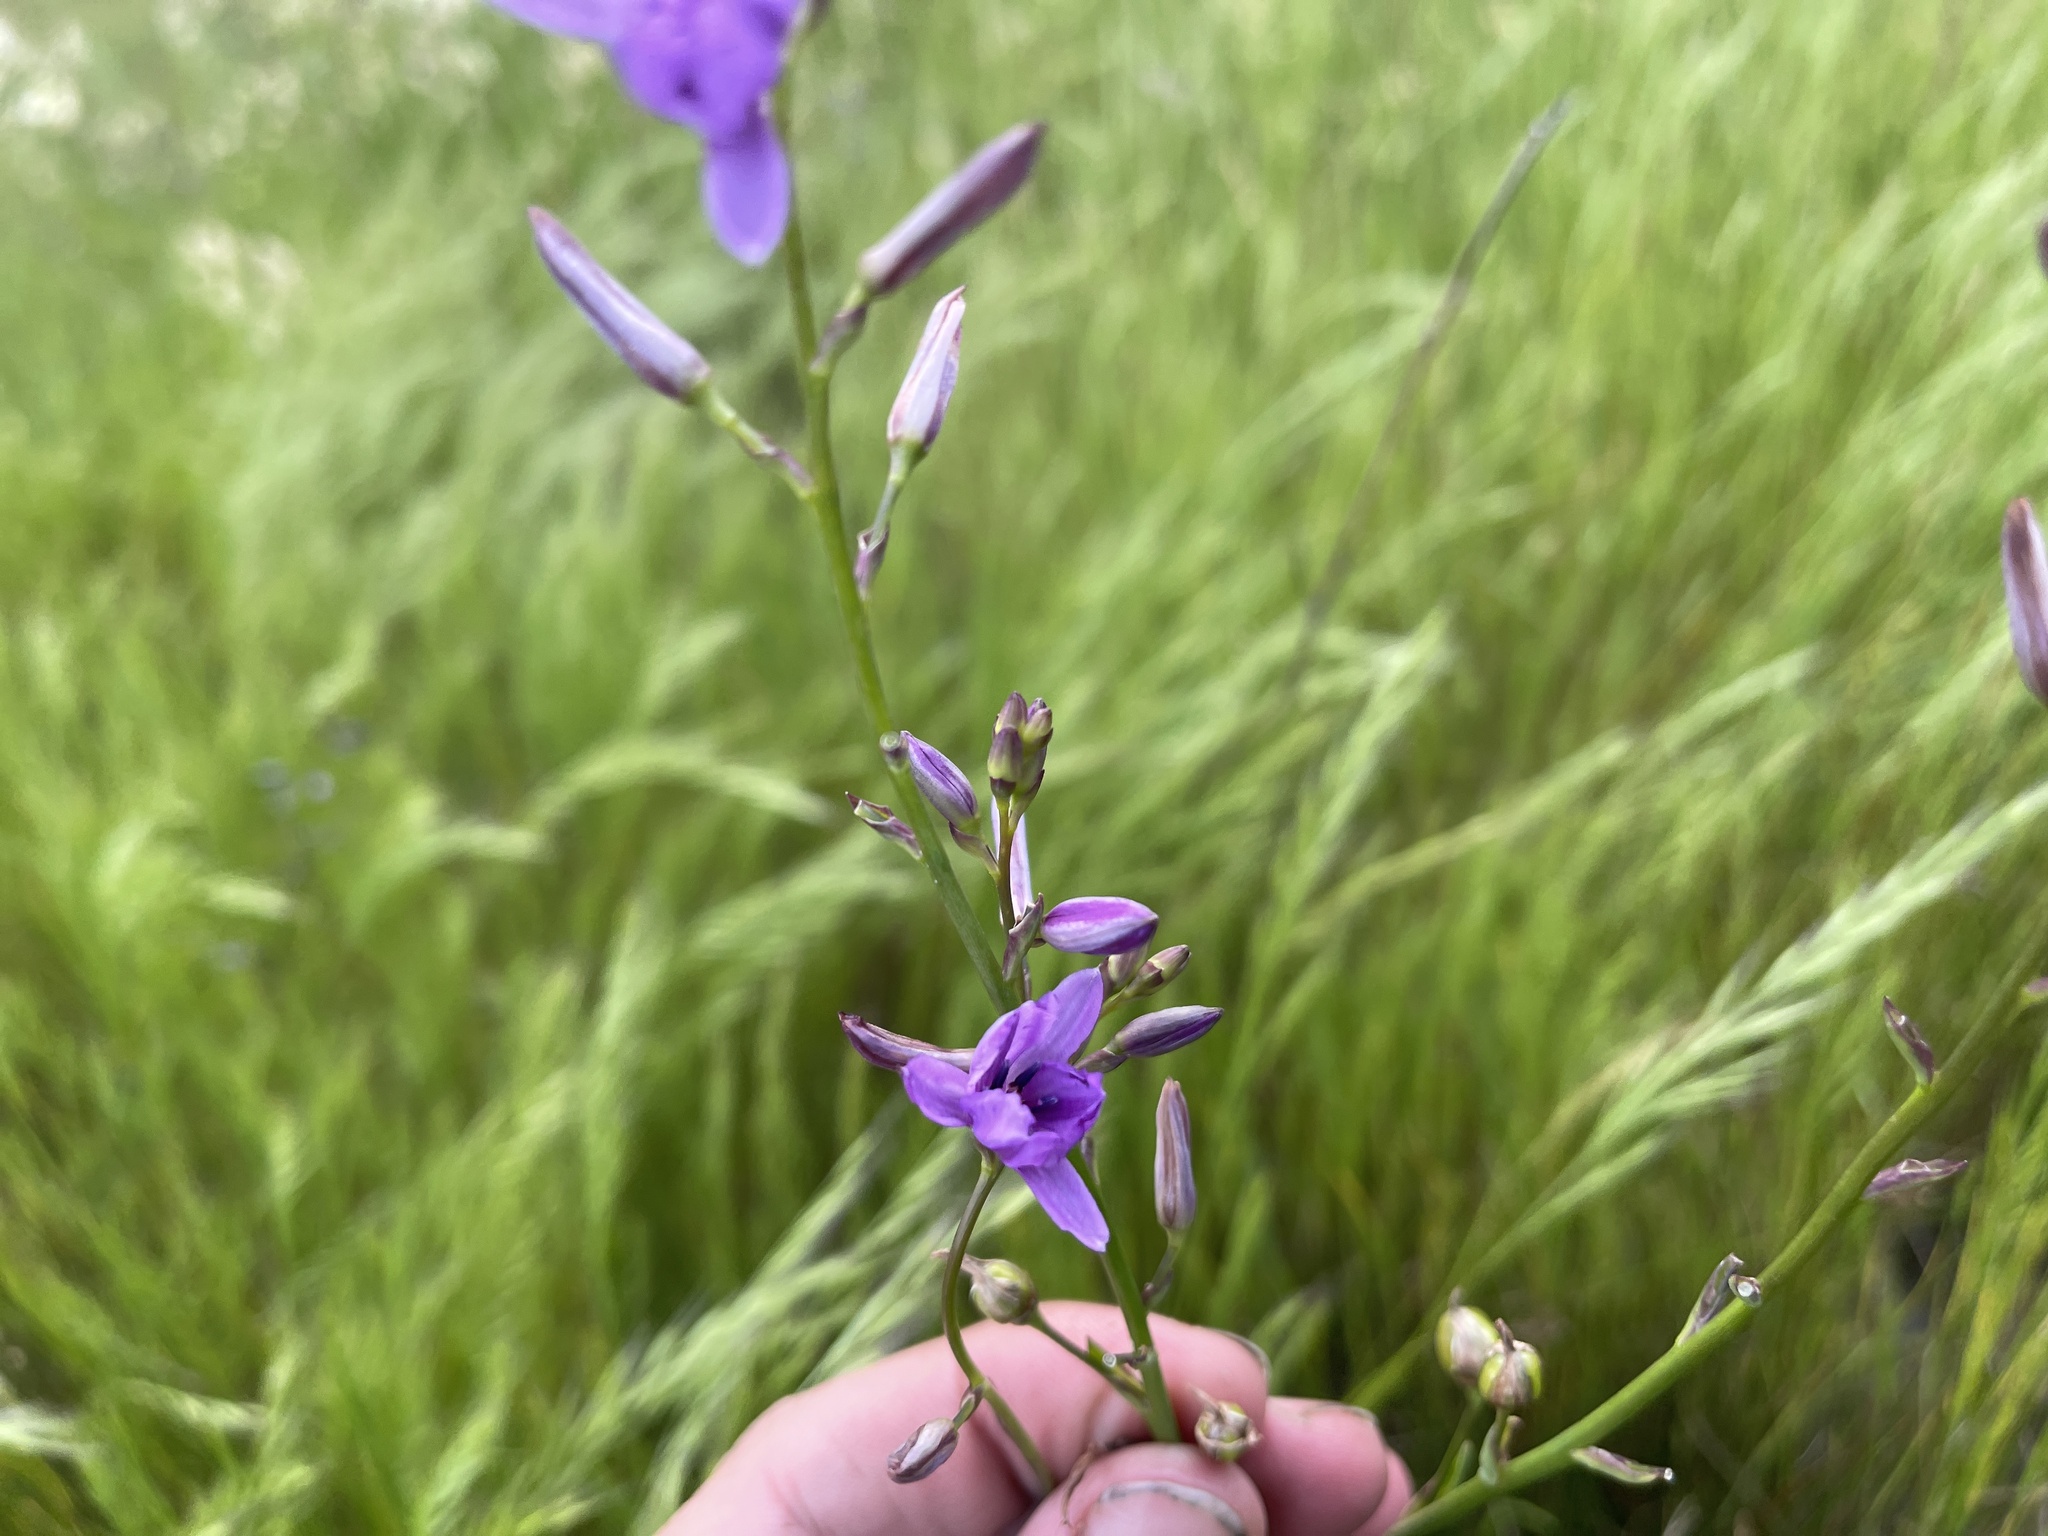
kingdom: Plantae
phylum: Tracheophyta
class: Liliopsida
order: Asparagales
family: Asparagaceae
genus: Arthropodium
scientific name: Arthropodium strictum
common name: Chocolate-lily
